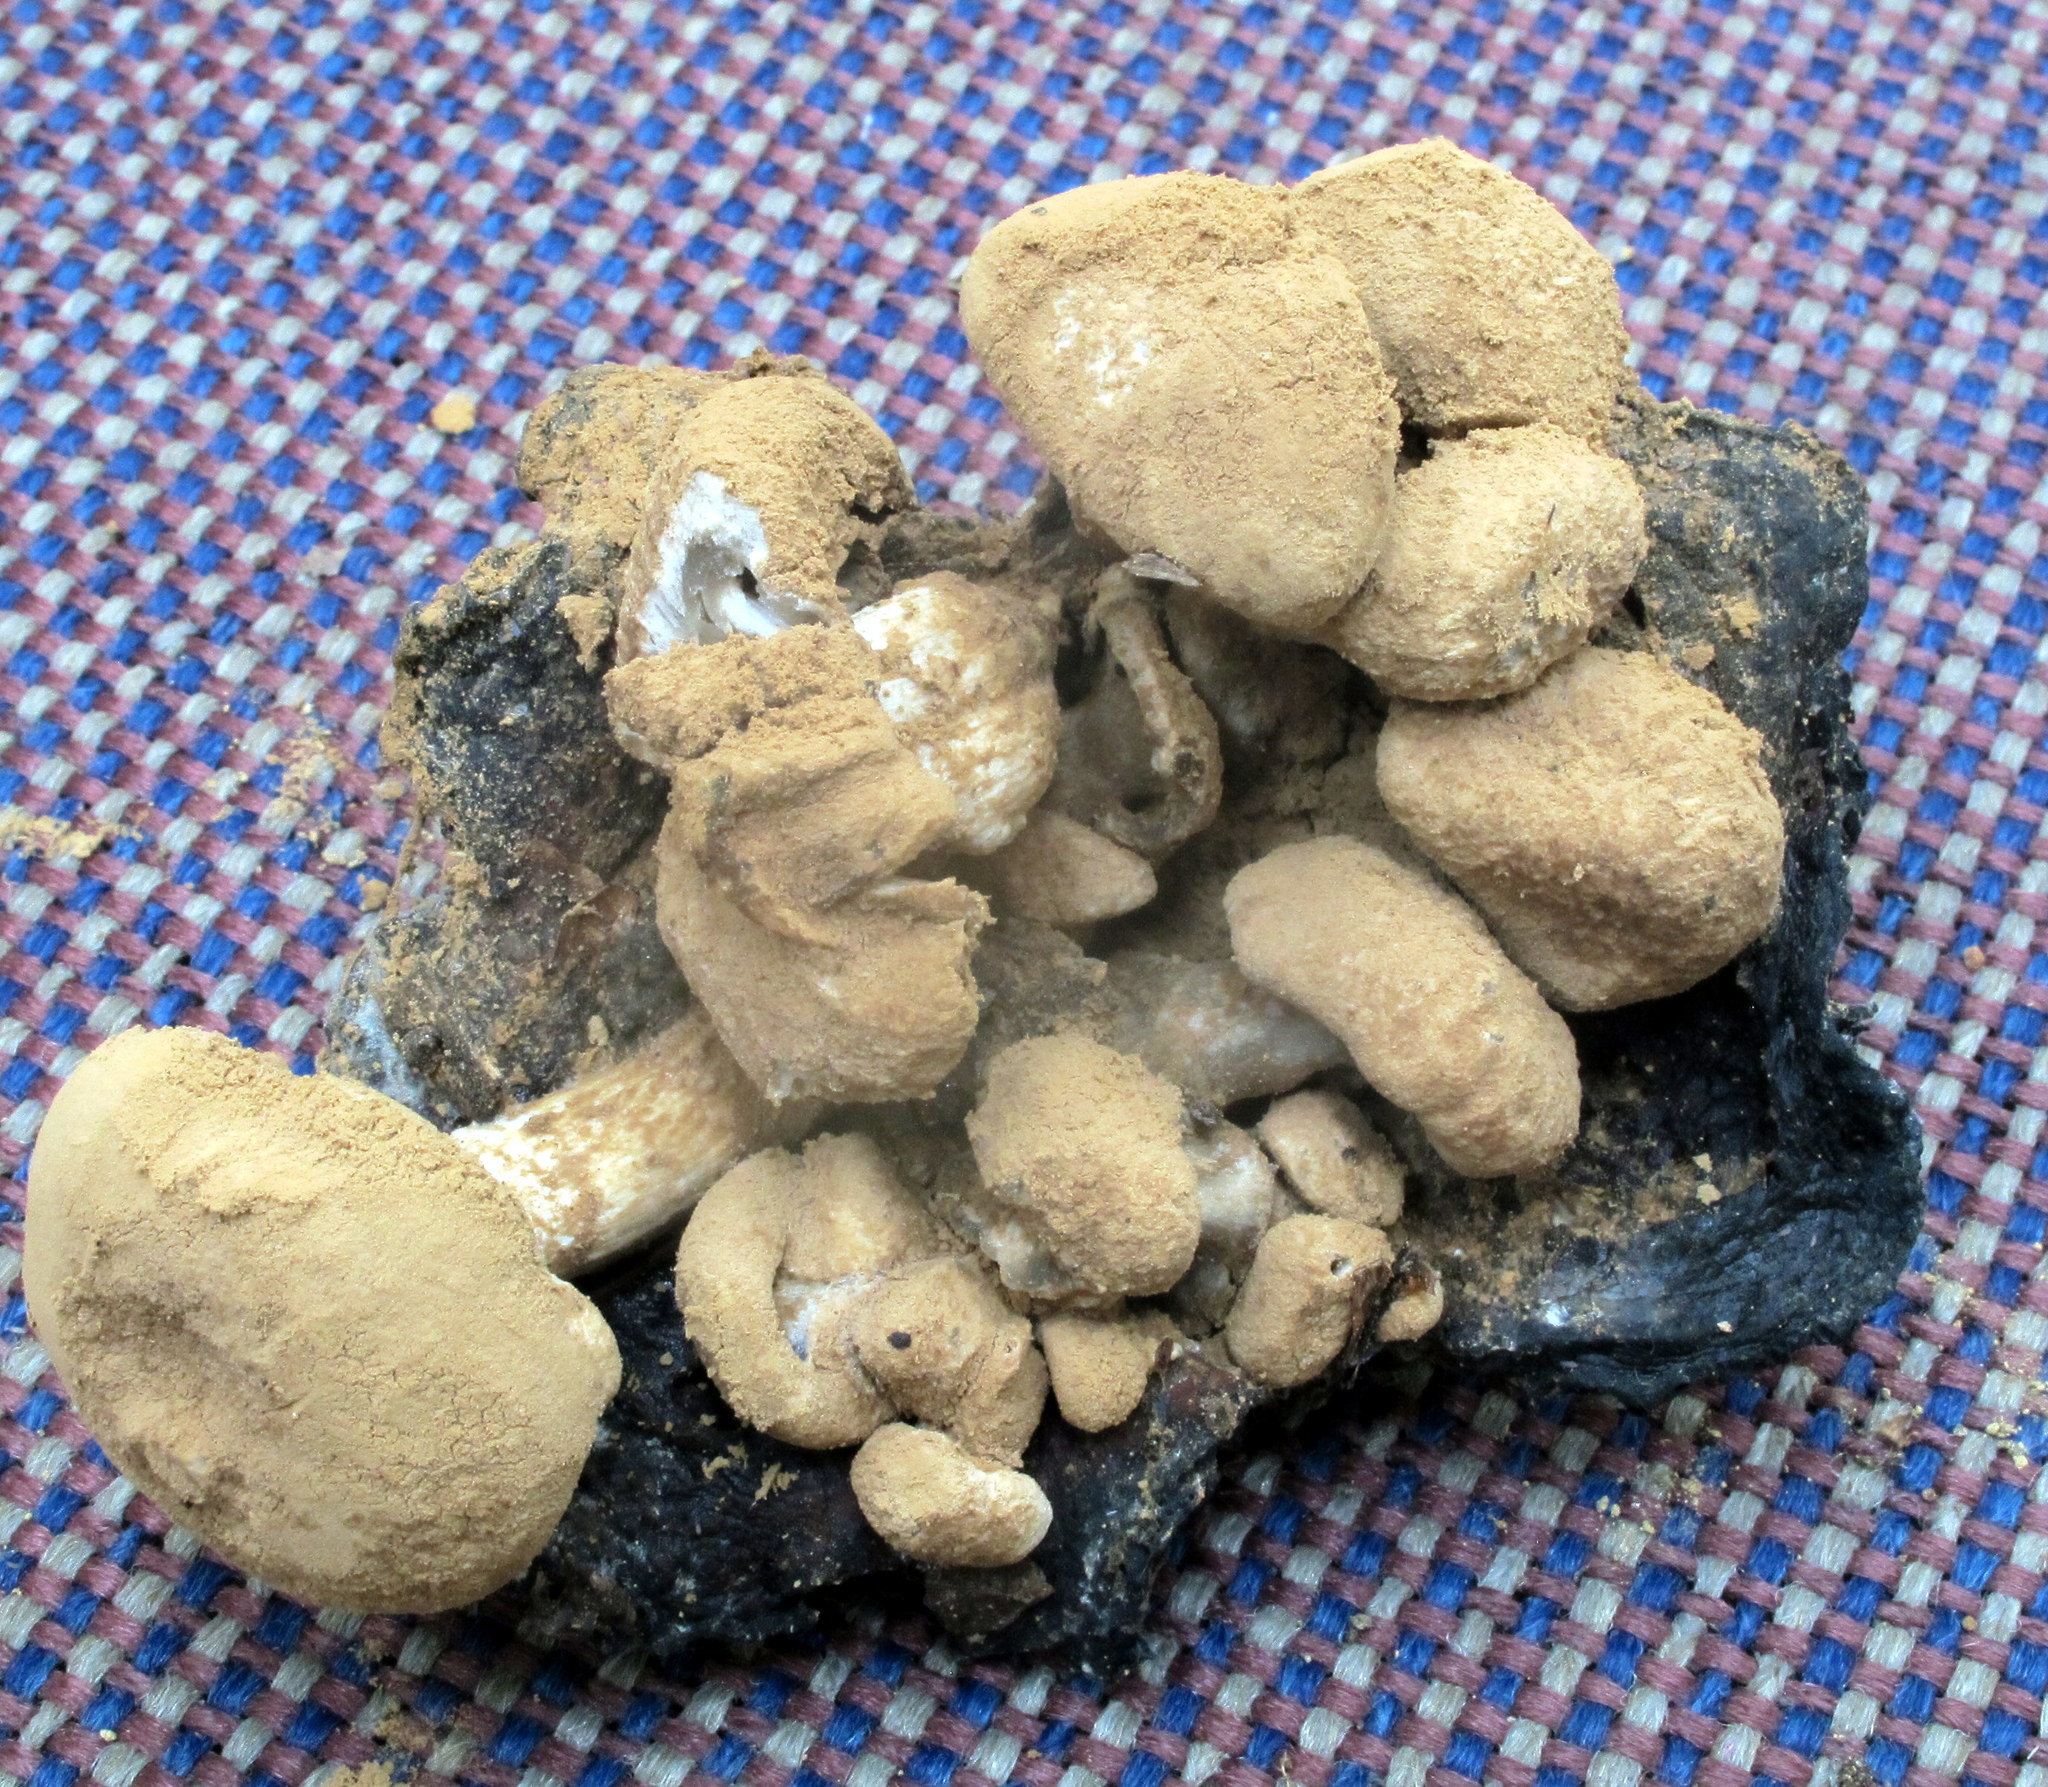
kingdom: Fungi
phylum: Basidiomycota
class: Agaricomycetes
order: Agaricales
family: Lyophyllaceae
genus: Asterophora
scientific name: Asterophora lycoperdoides
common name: Pick-a-back toadstool
